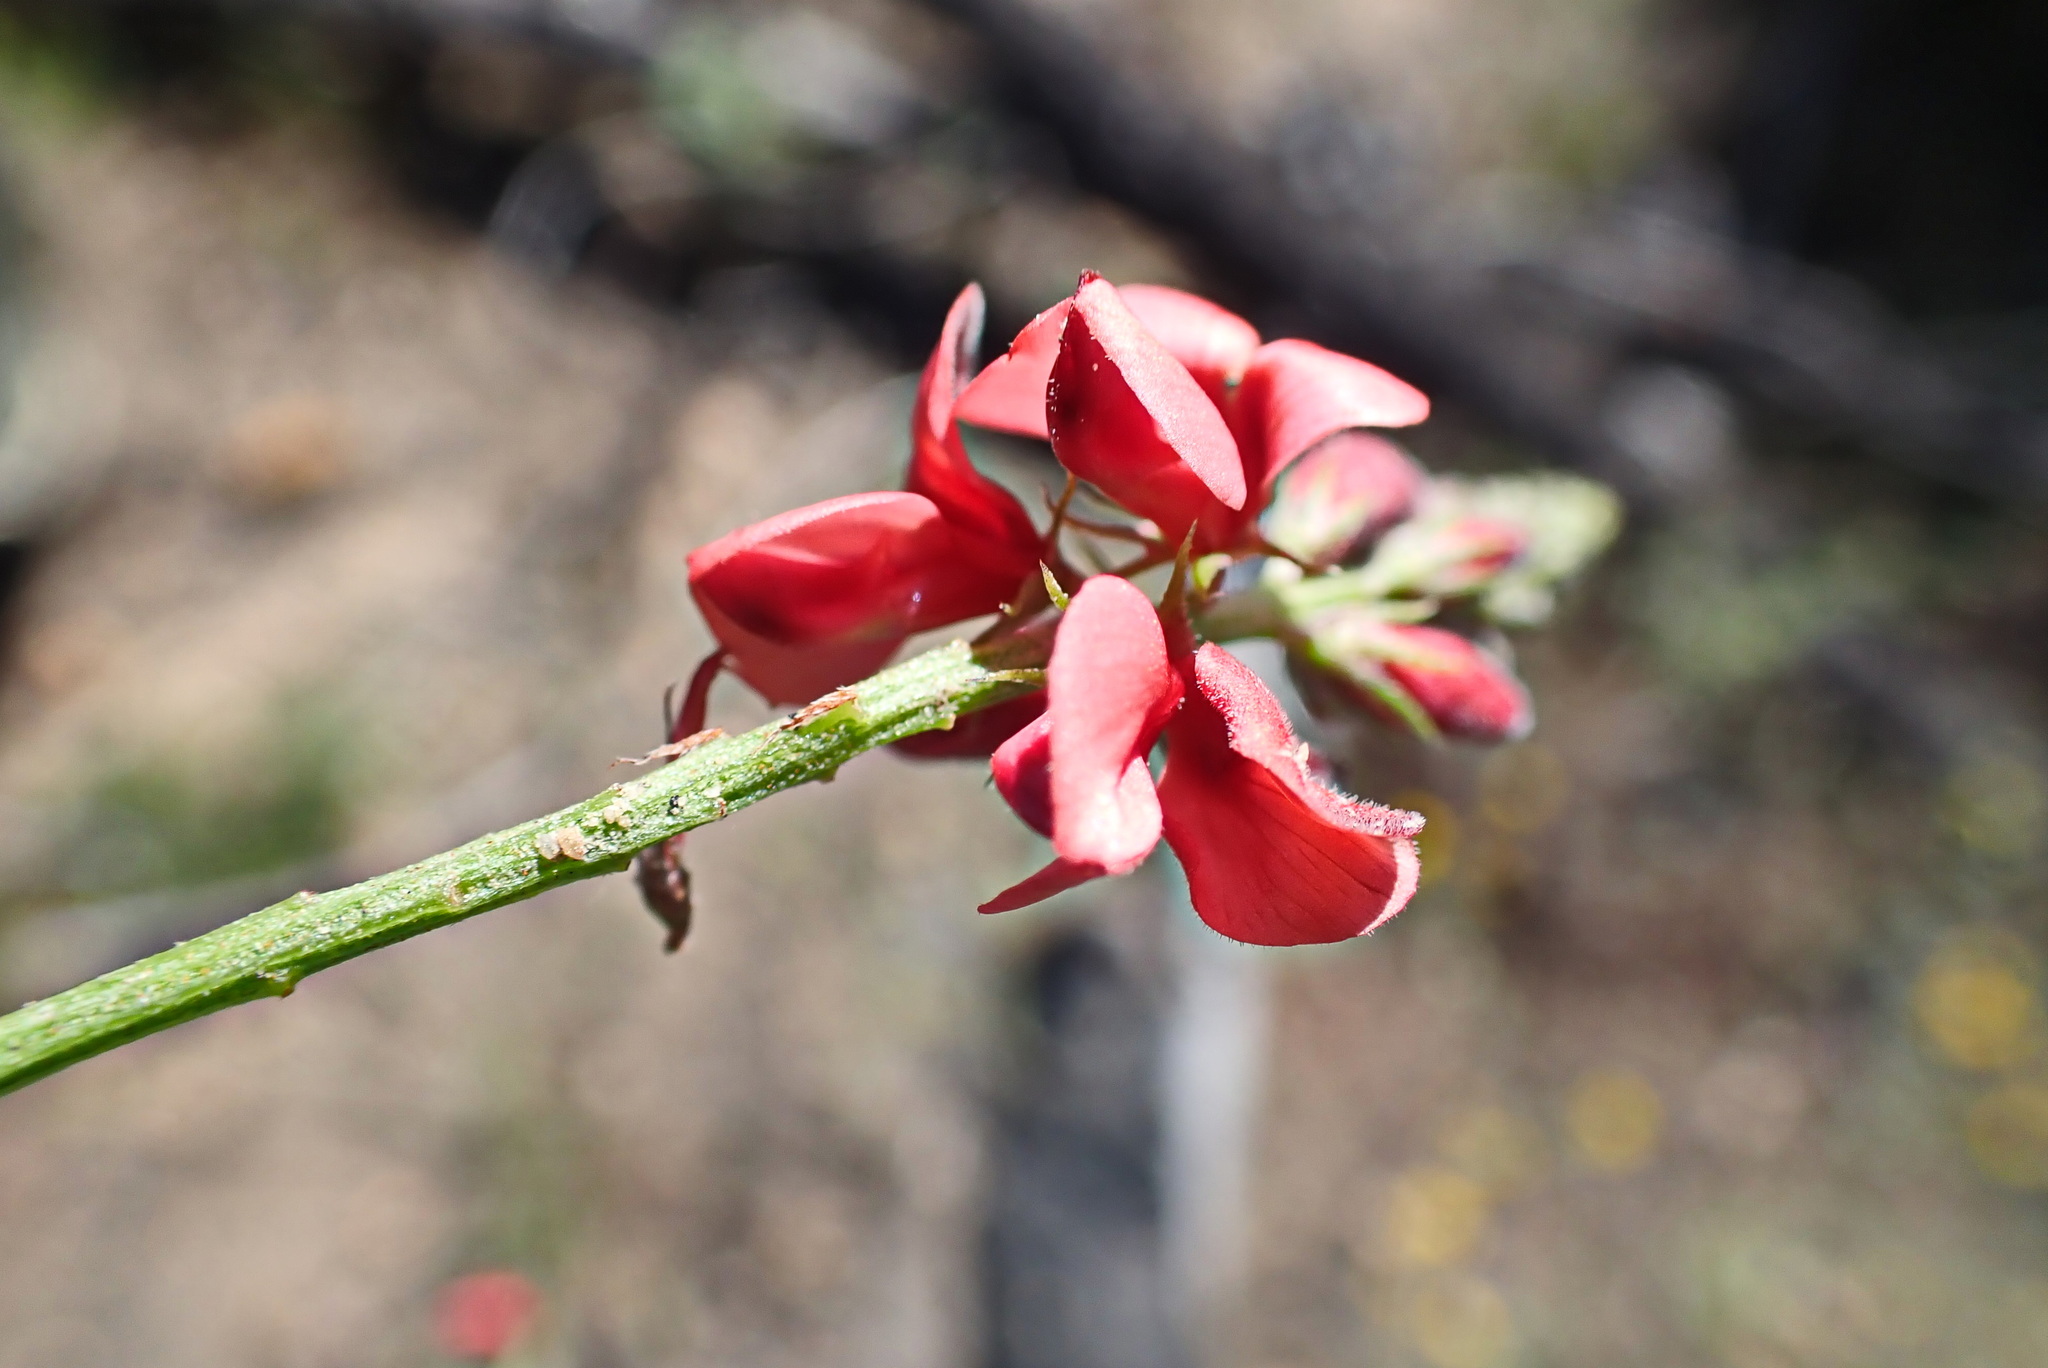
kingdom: Plantae
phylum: Tracheophyta
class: Magnoliopsida
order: Fabales
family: Fabaceae
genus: Indigofera
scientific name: Indigofera heterophylla
